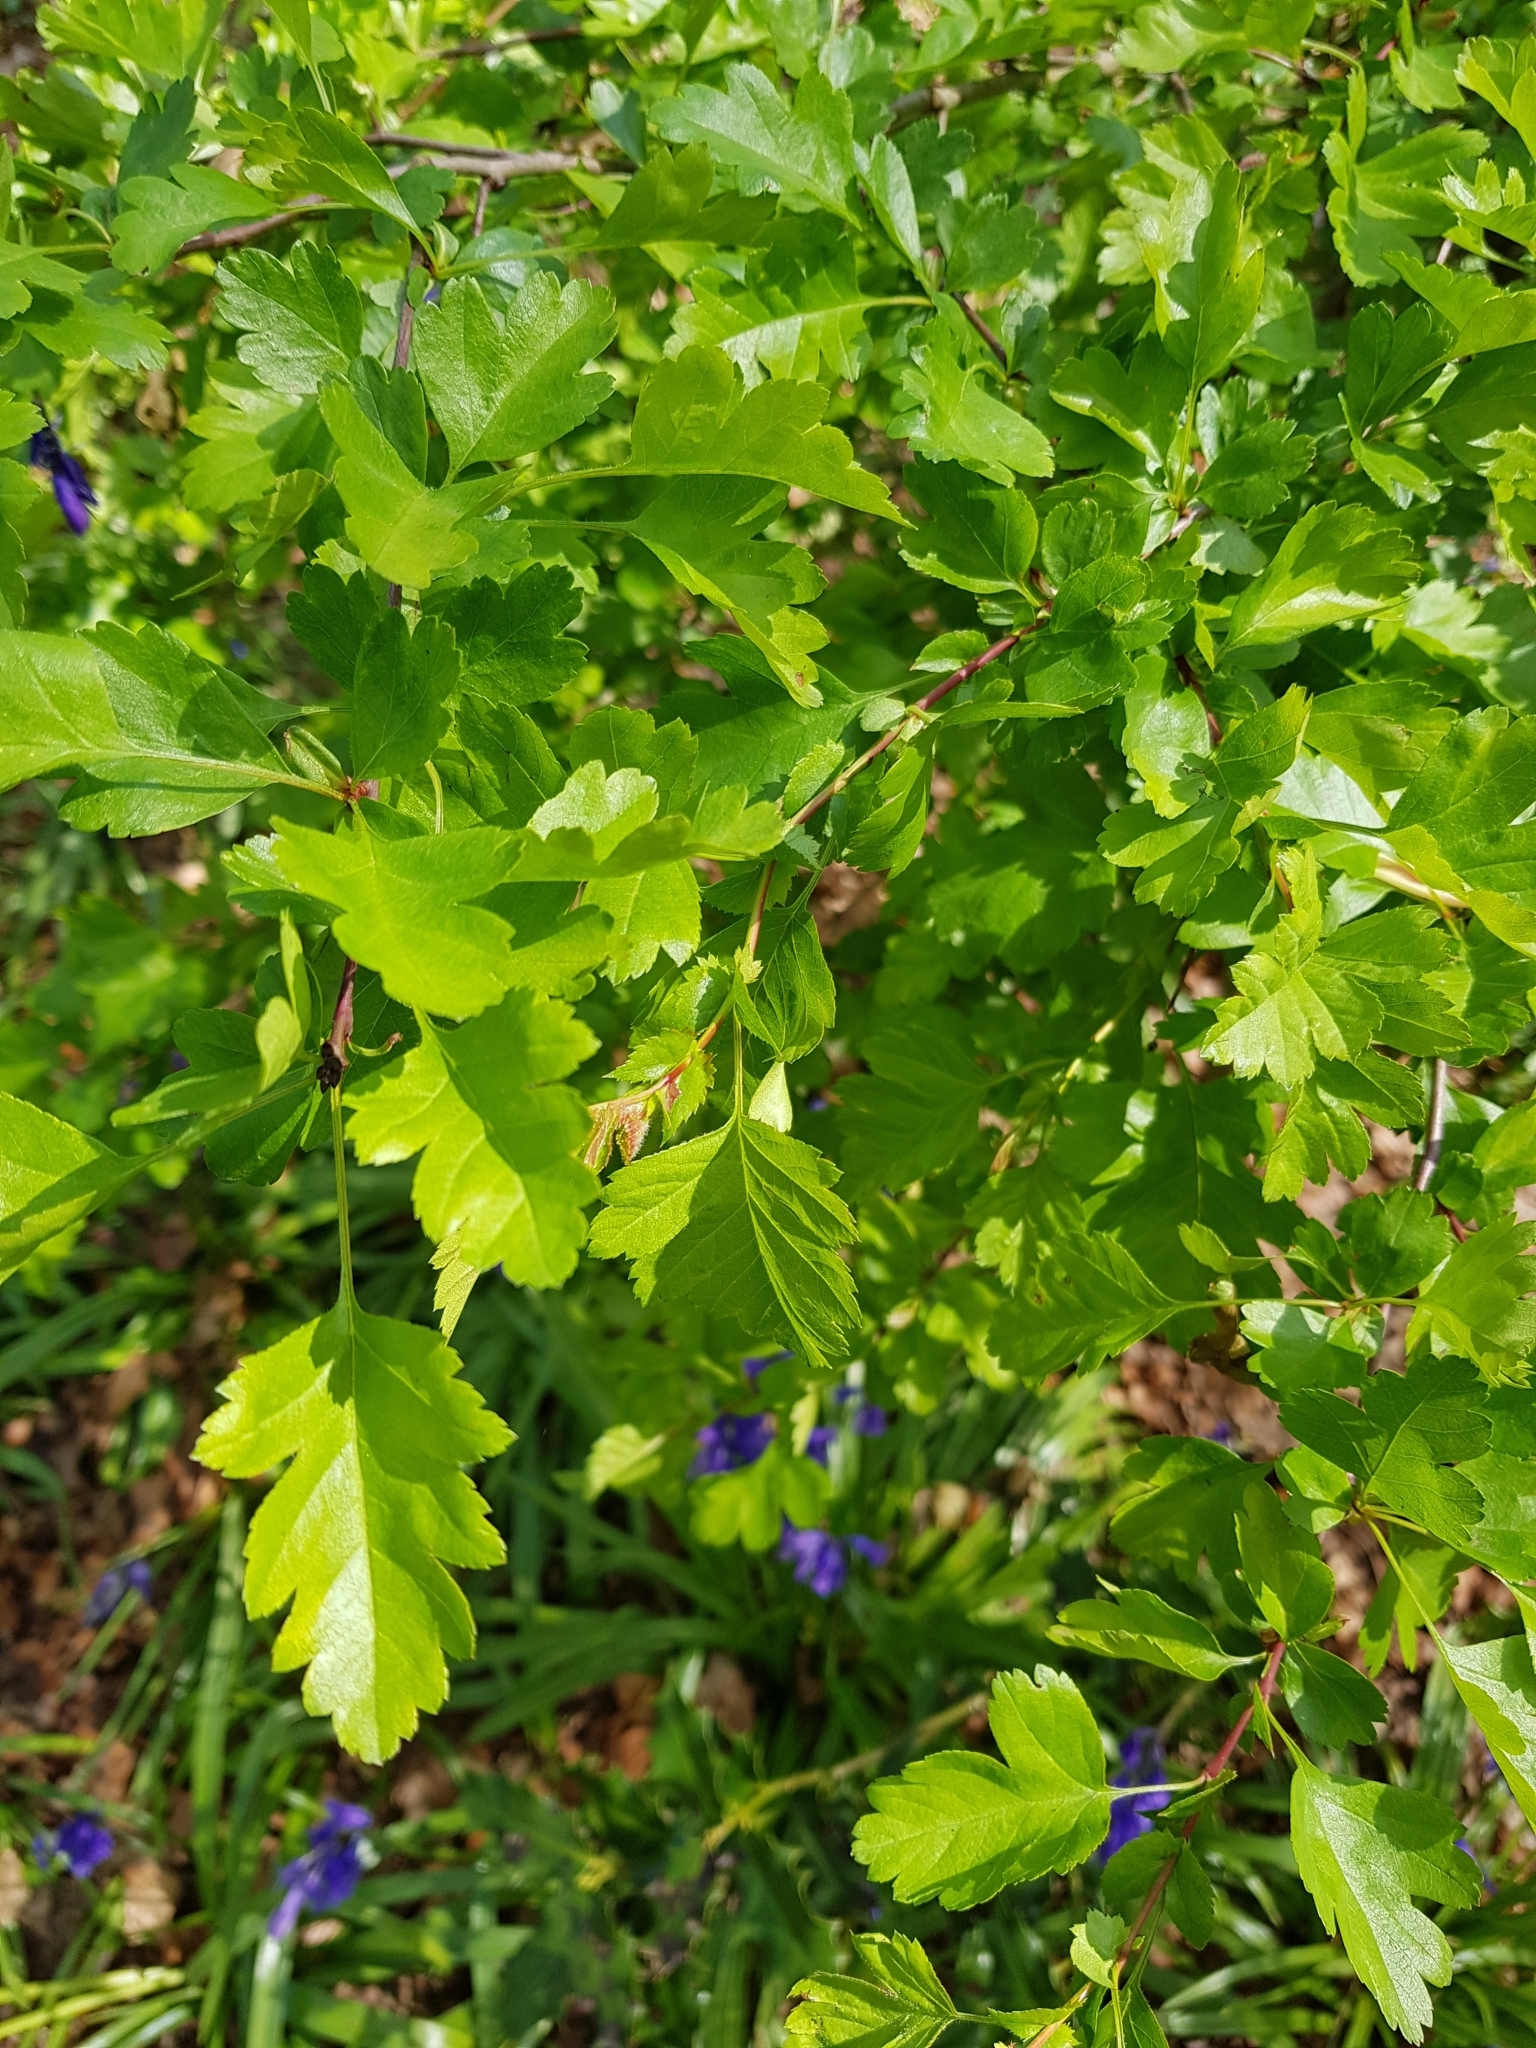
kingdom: Plantae
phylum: Tracheophyta
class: Magnoliopsida
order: Rosales
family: Rosaceae
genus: Crataegus
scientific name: Crataegus monogyna
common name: Hawthorn
